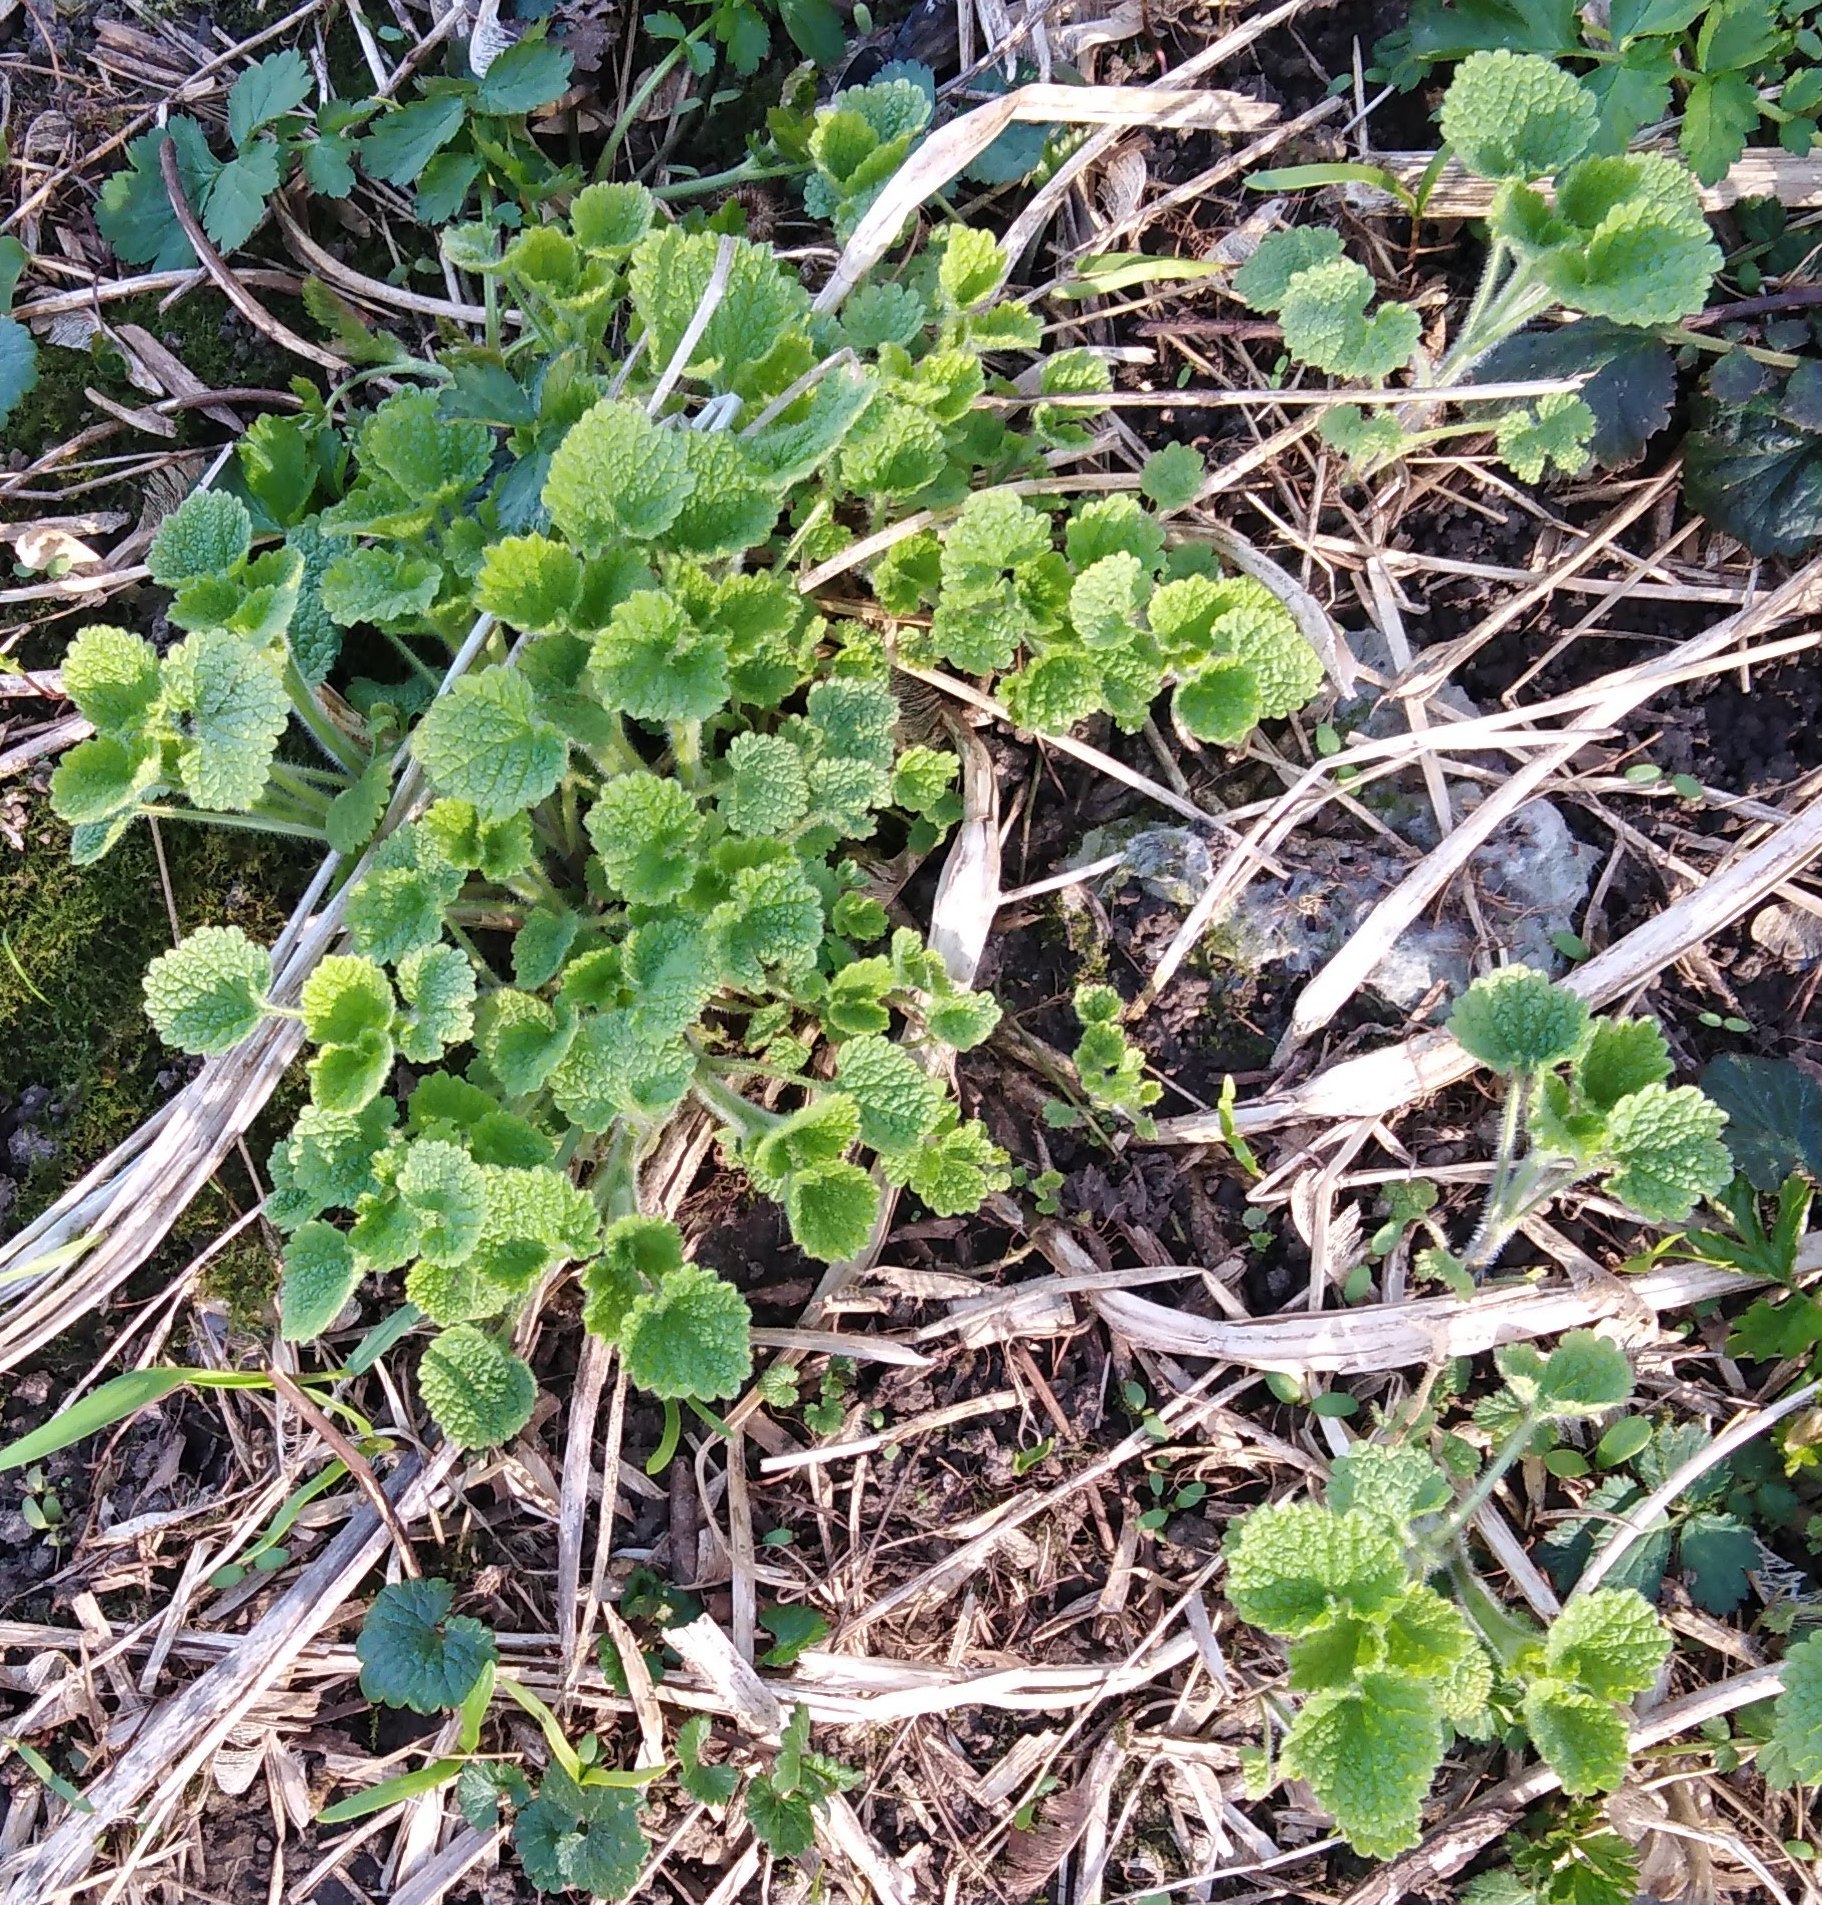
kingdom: Plantae
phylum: Tracheophyta
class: Magnoliopsida
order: Lamiales
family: Lamiaceae
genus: Ballota
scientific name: Ballota nigra
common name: Black horehound
